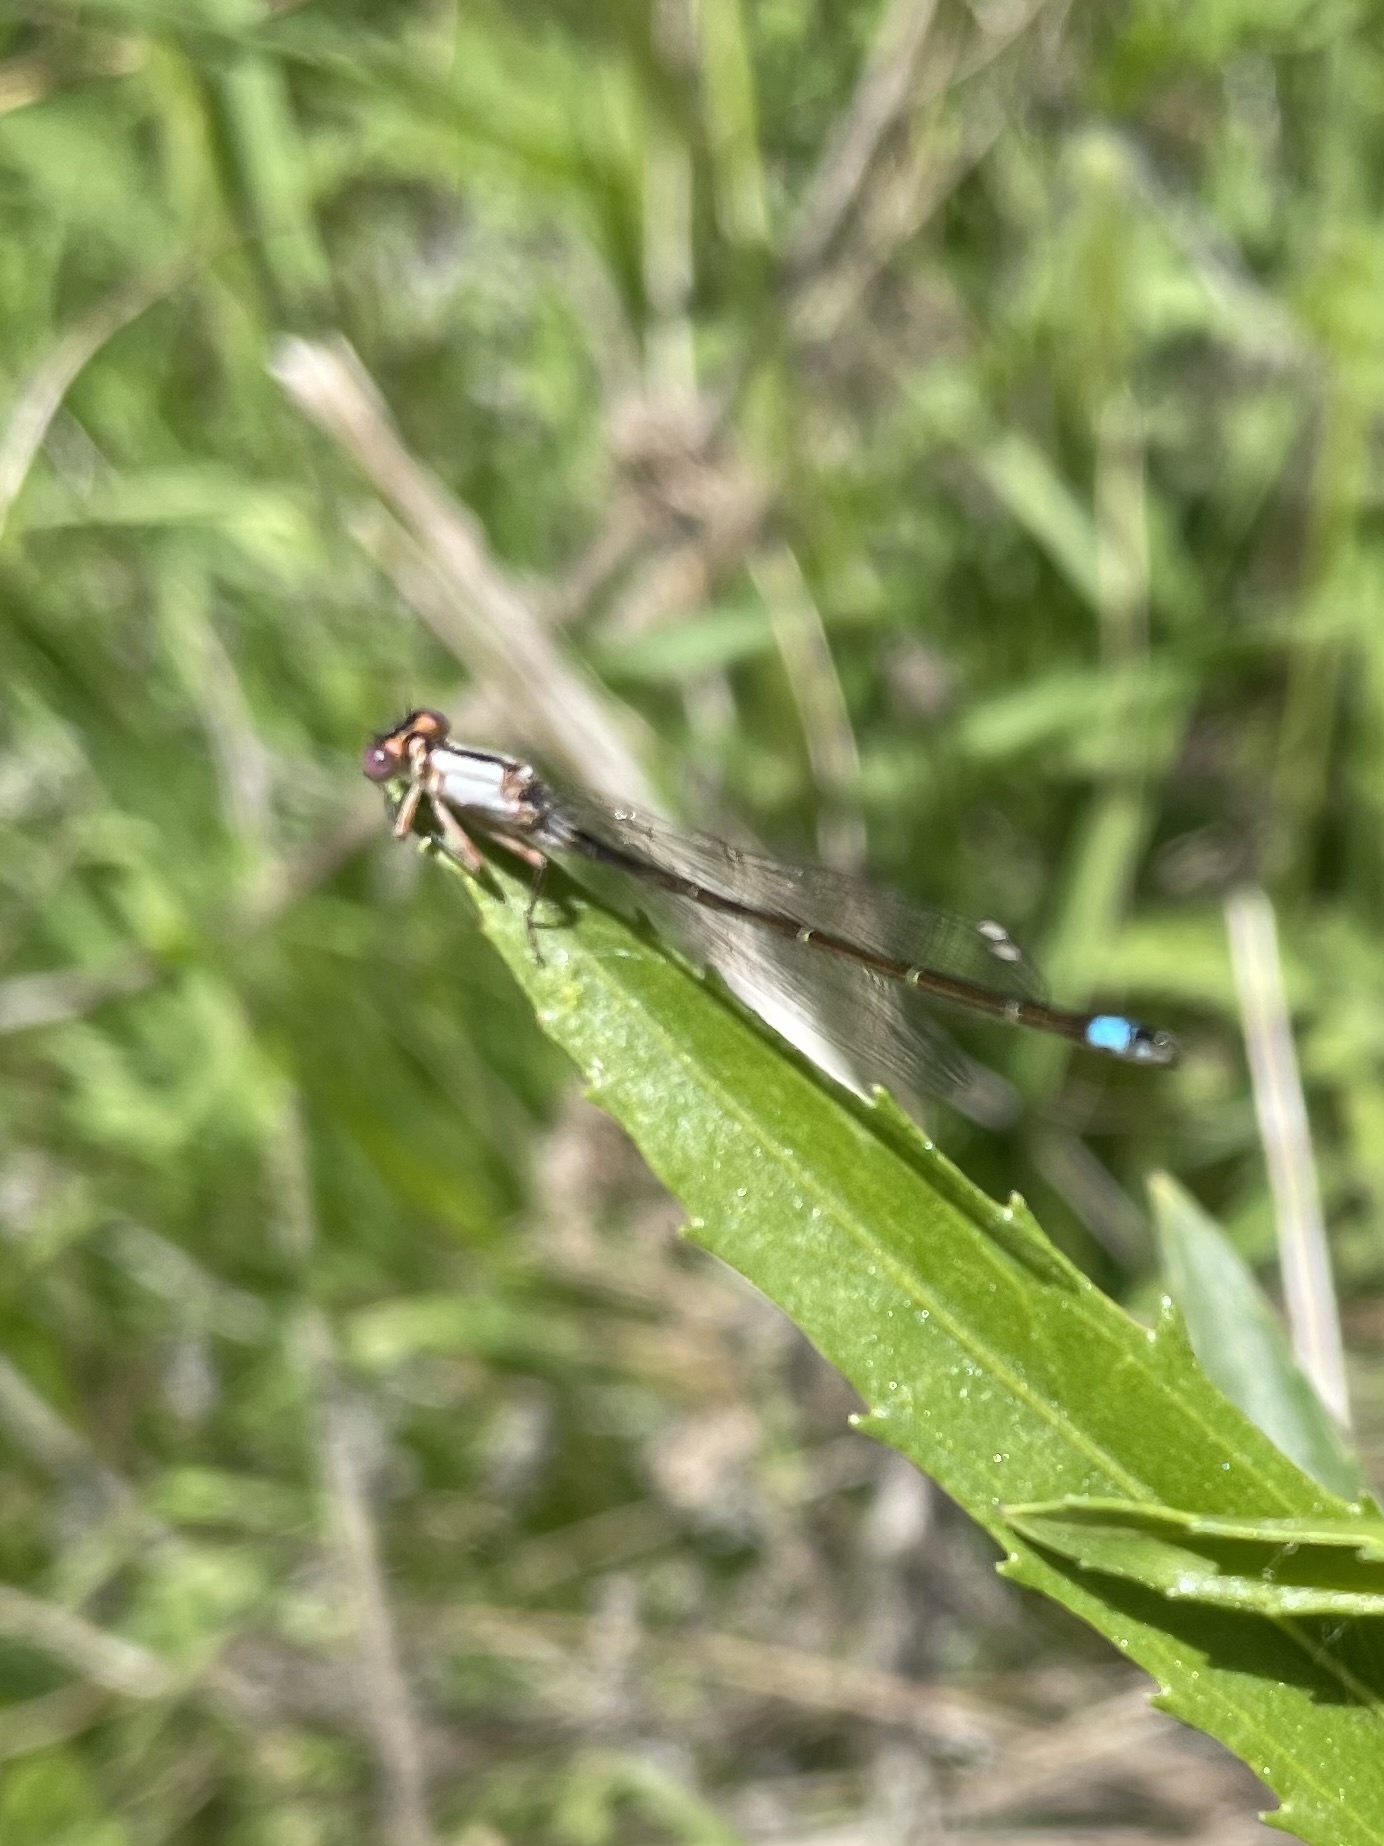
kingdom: Animalia
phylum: Arthropoda
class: Insecta
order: Odonata
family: Coenagrionidae
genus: Ischnura
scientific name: Ischnura cervula
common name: Pacific forktail
